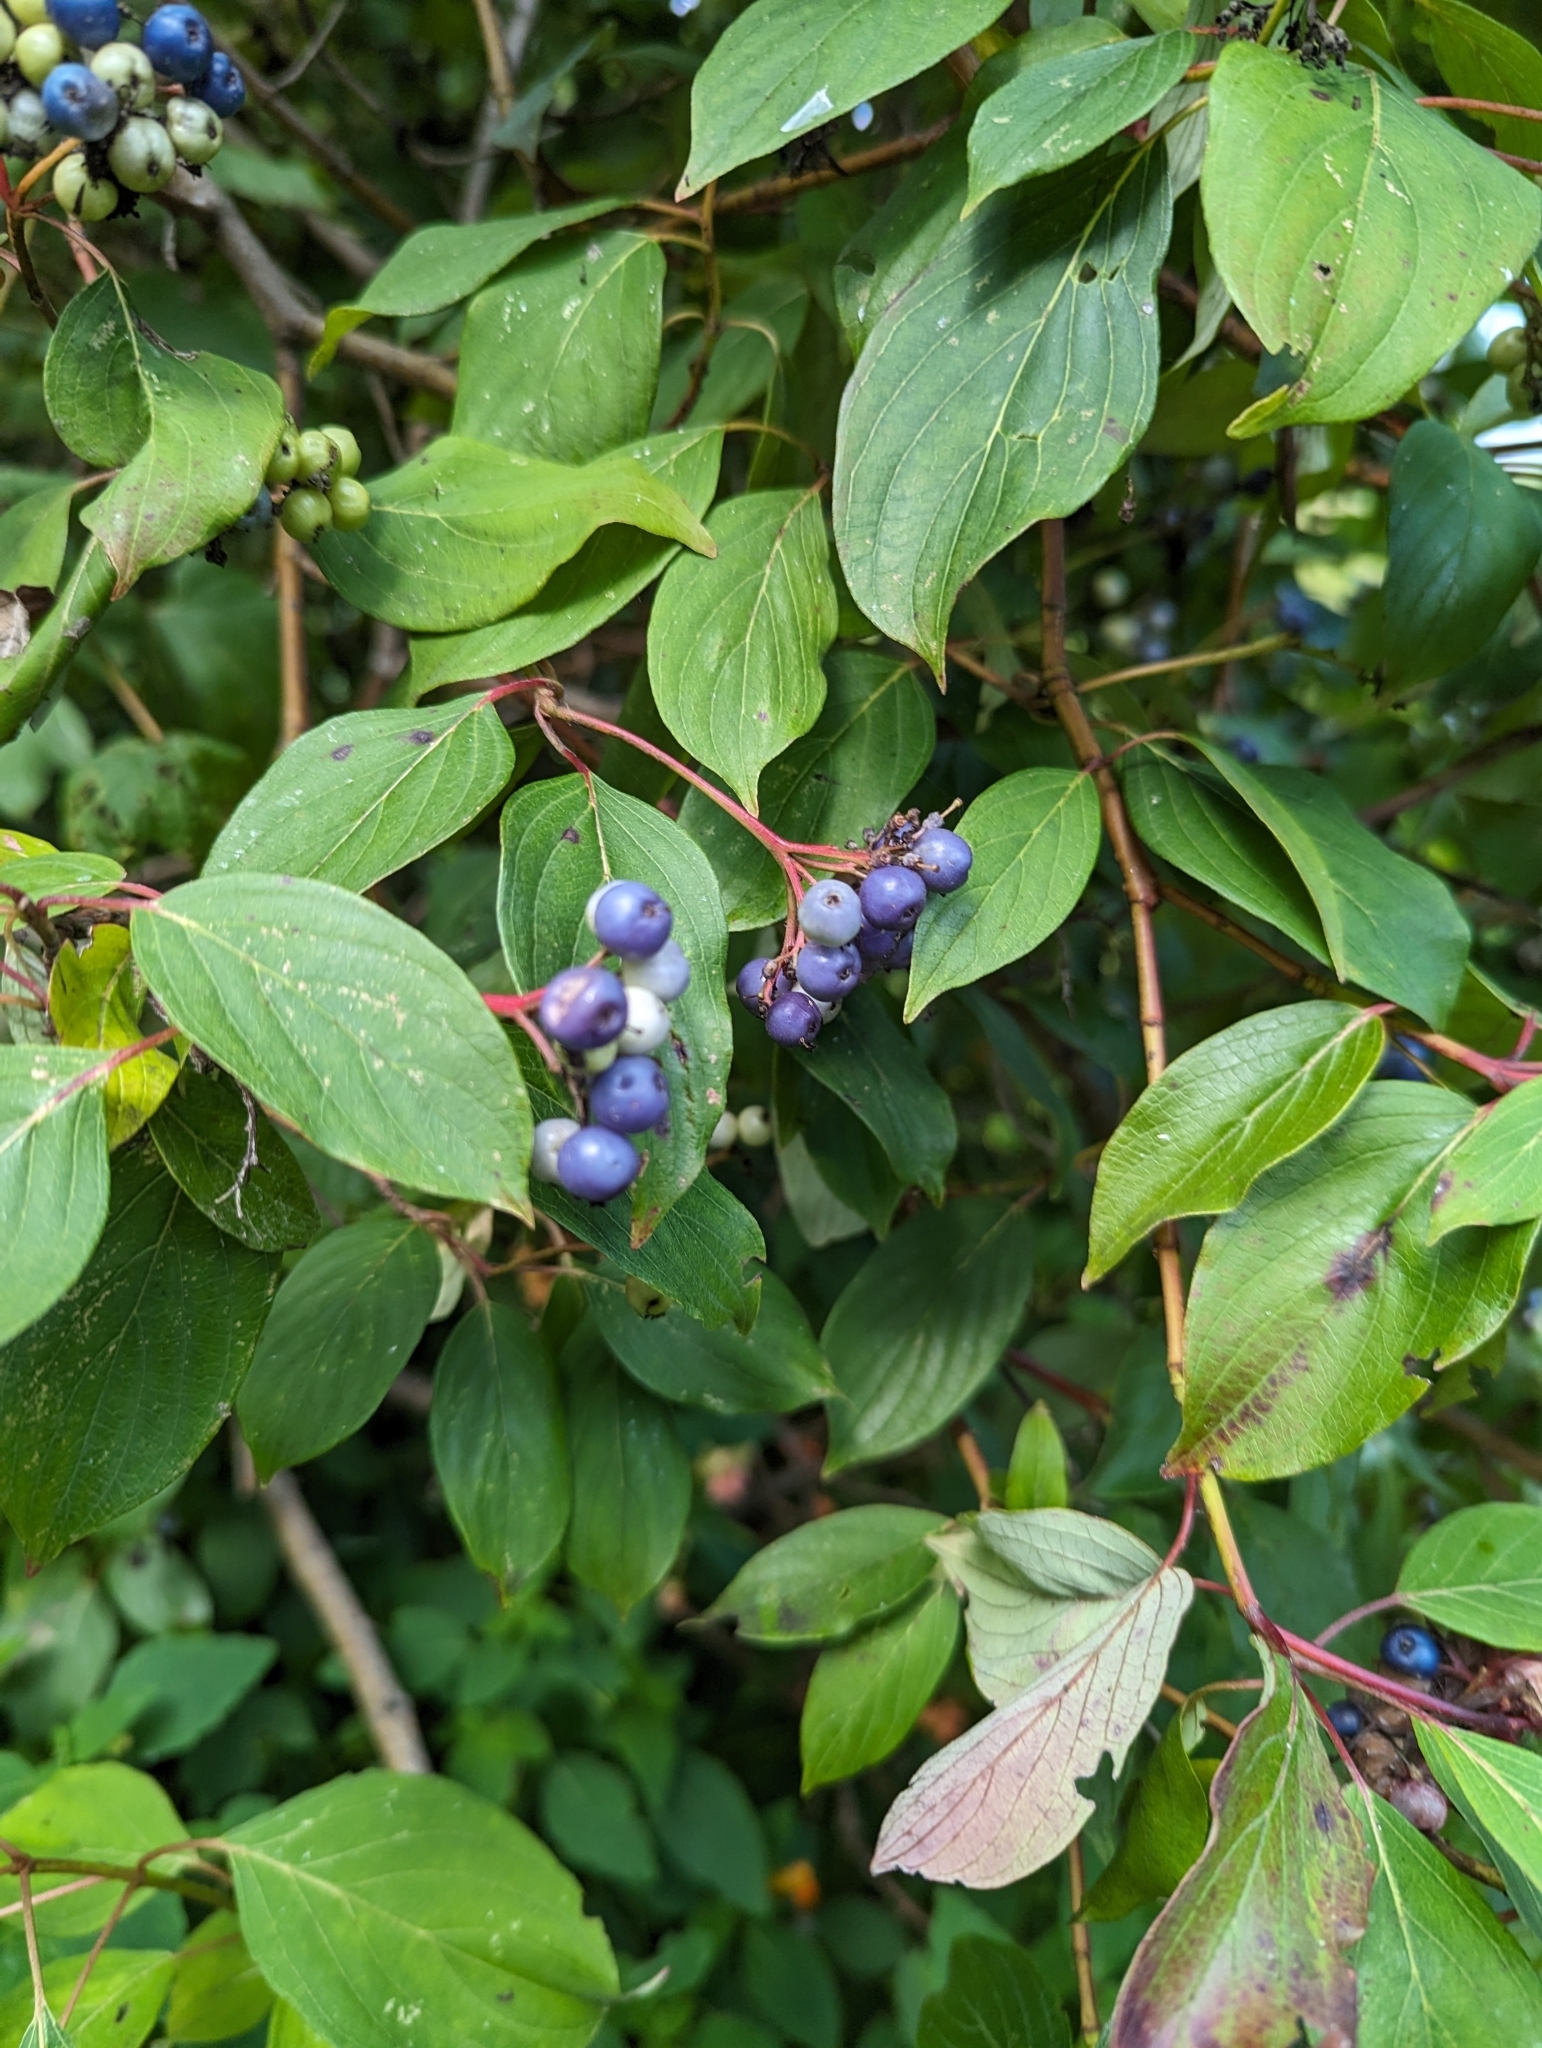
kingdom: Plantae
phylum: Tracheophyta
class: Magnoliopsida
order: Cornales
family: Cornaceae
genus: Cornus
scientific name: Cornus obliqua
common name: Pale dogwood
